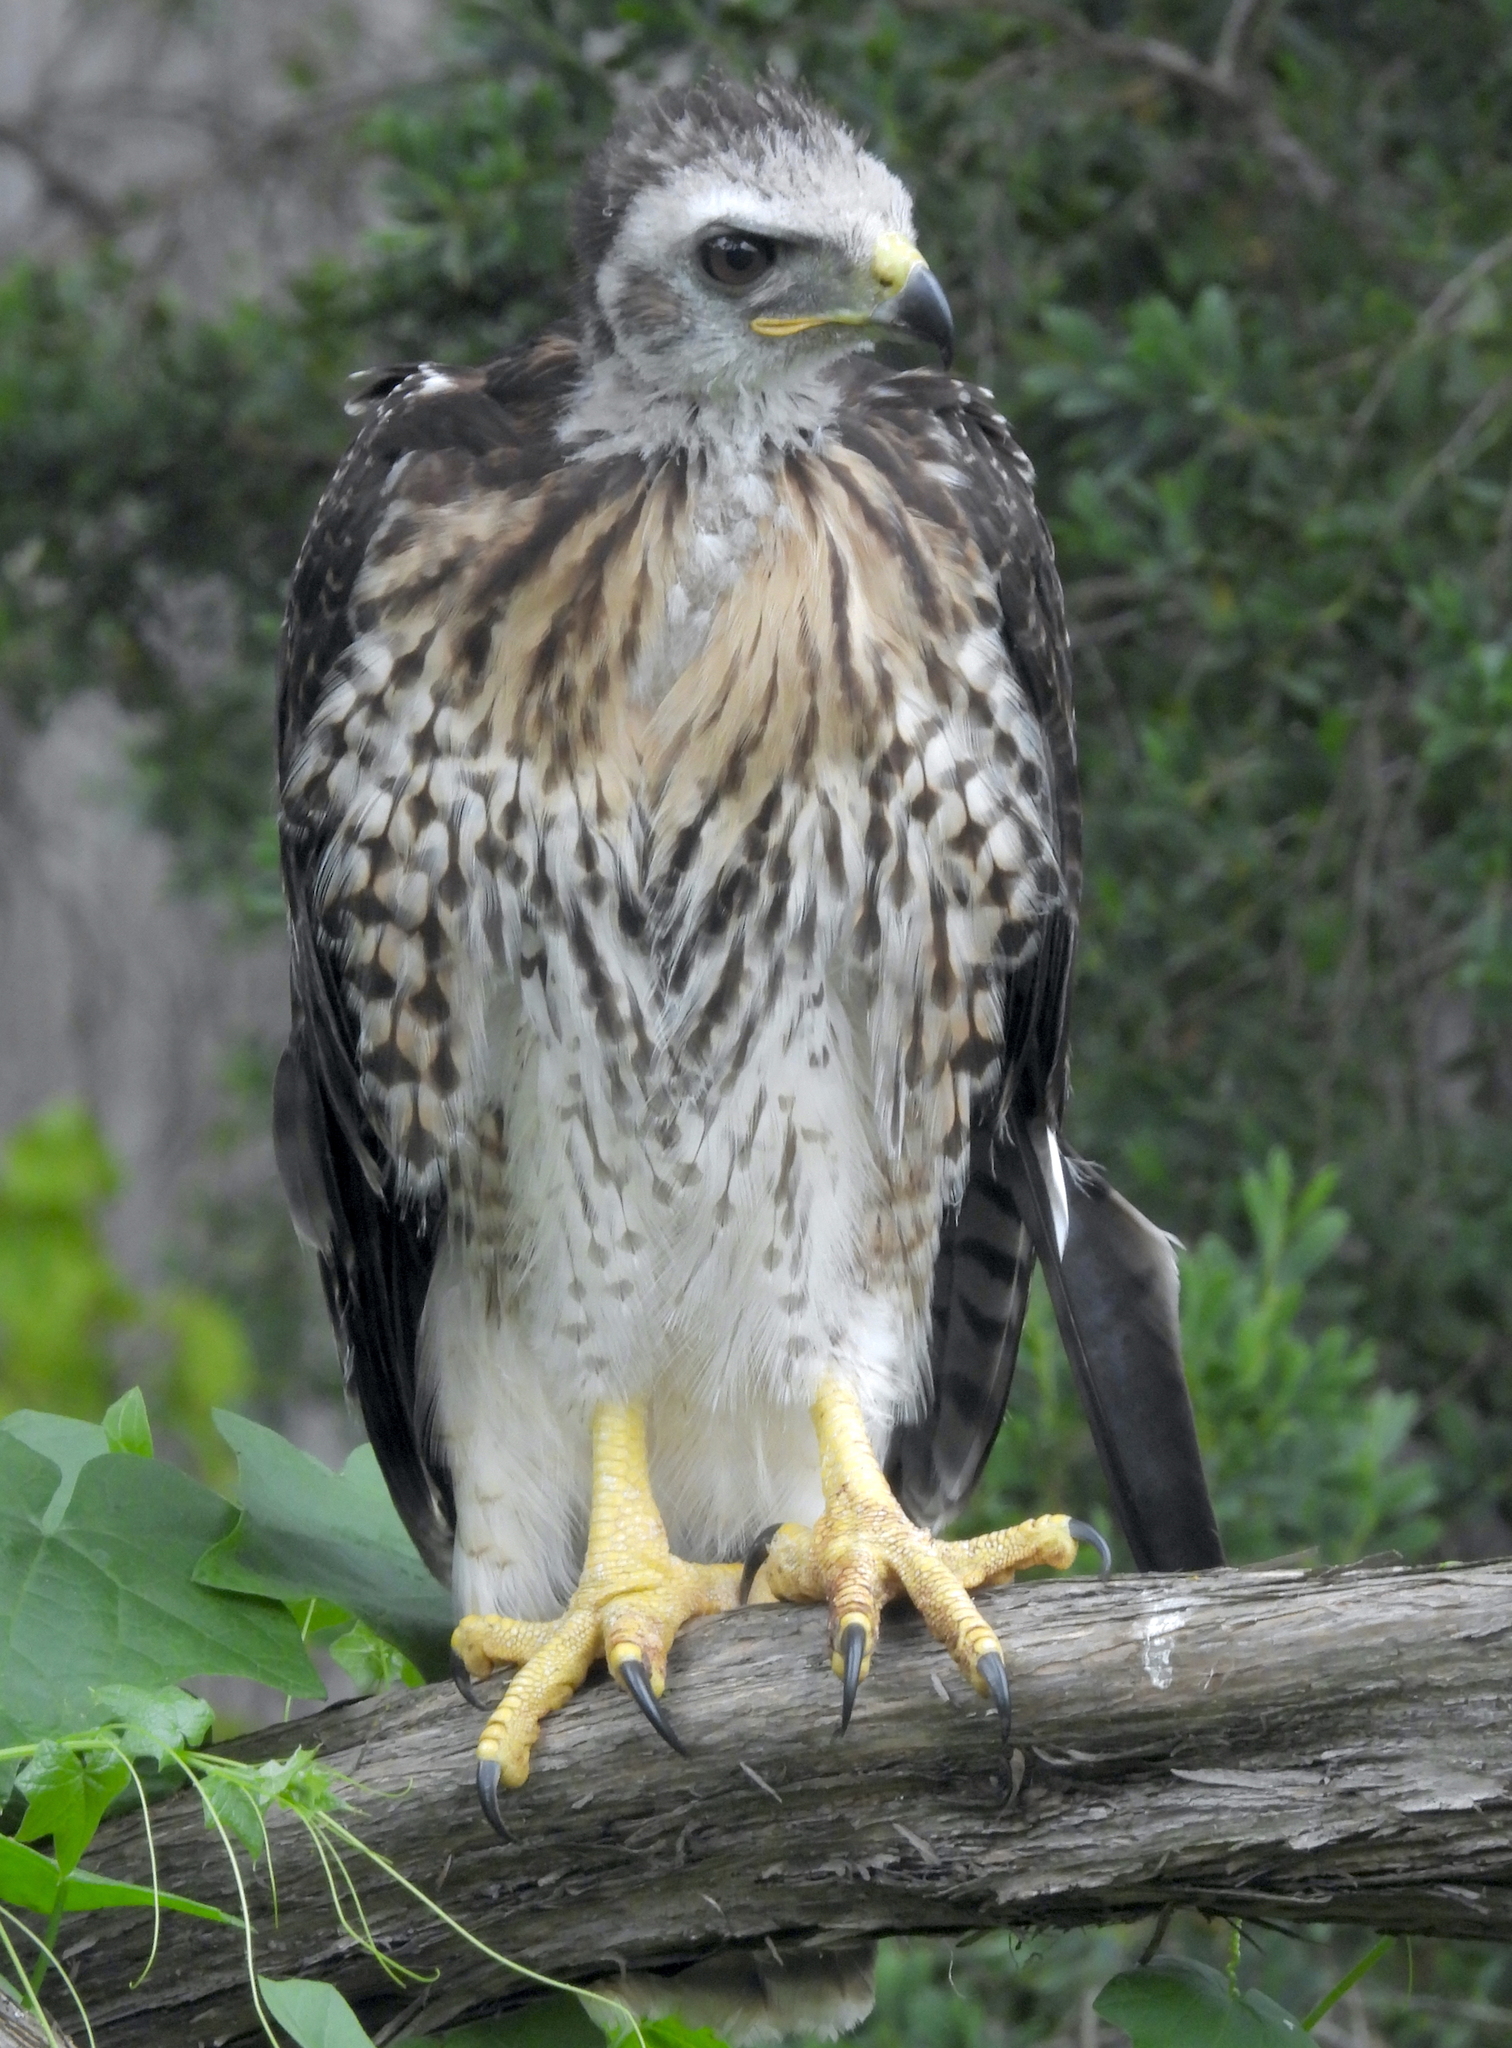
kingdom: Animalia
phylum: Chordata
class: Aves
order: Accipitriformes
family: Accipitridae
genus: Buteo
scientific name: Buteo jamaicensis
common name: Red-tailed hawk
